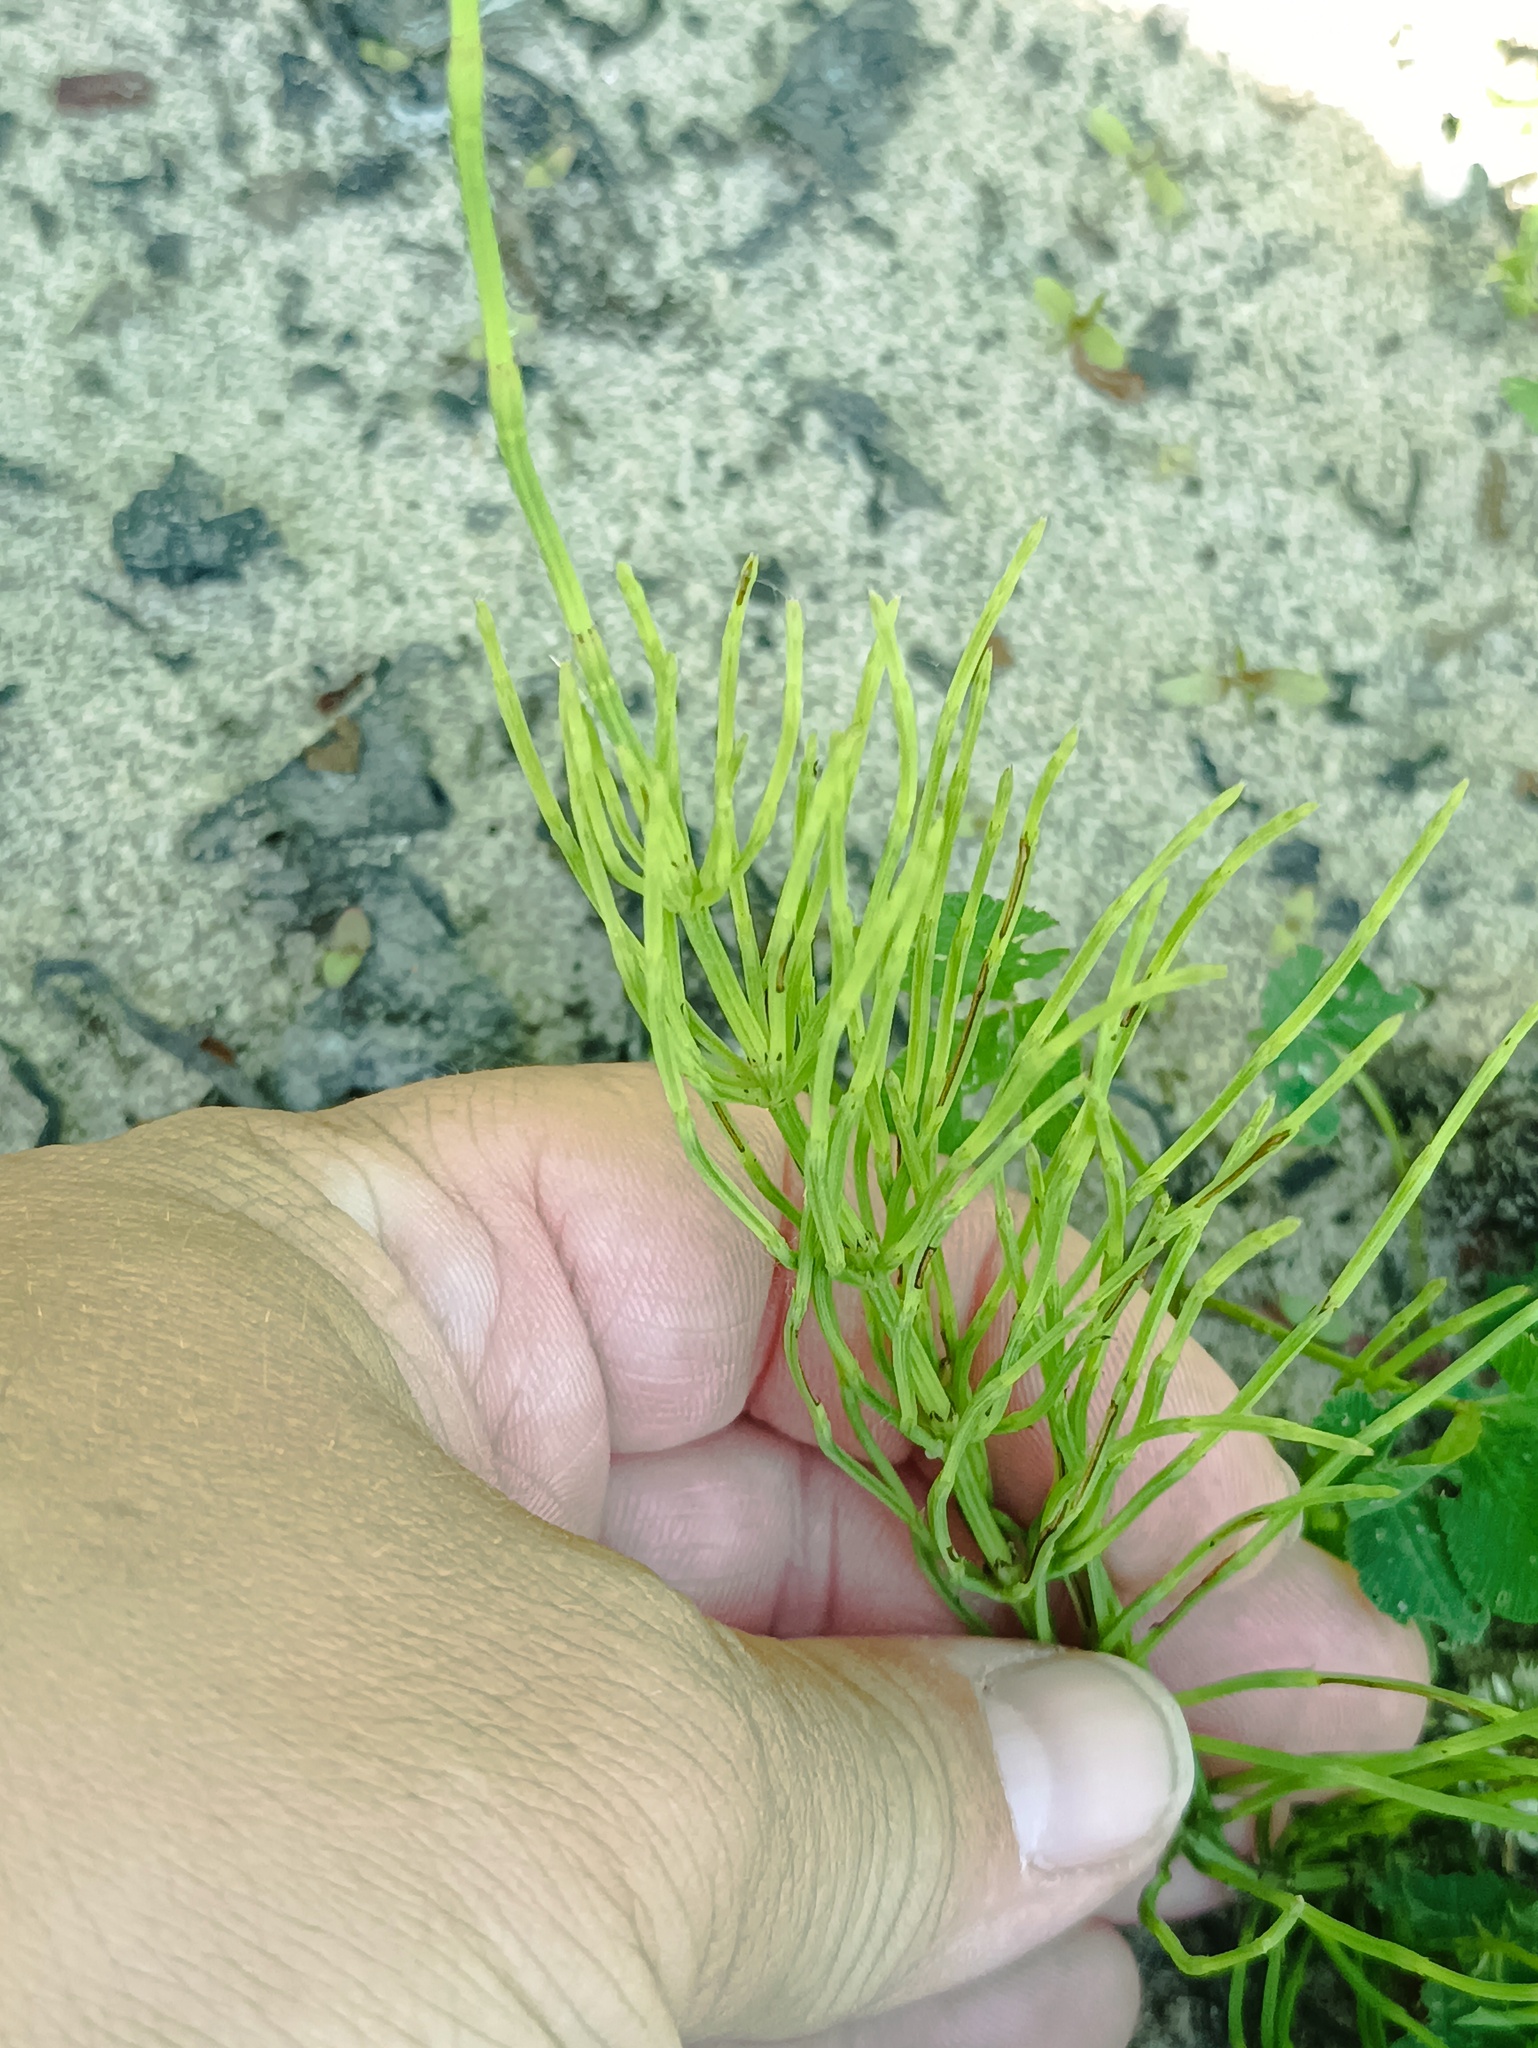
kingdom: Plantae
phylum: Tracheophyta
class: Polypodiopsida
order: Equisetales
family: Equisetaceae
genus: Equisetum
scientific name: Equisetum arvense
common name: Field horsetail
